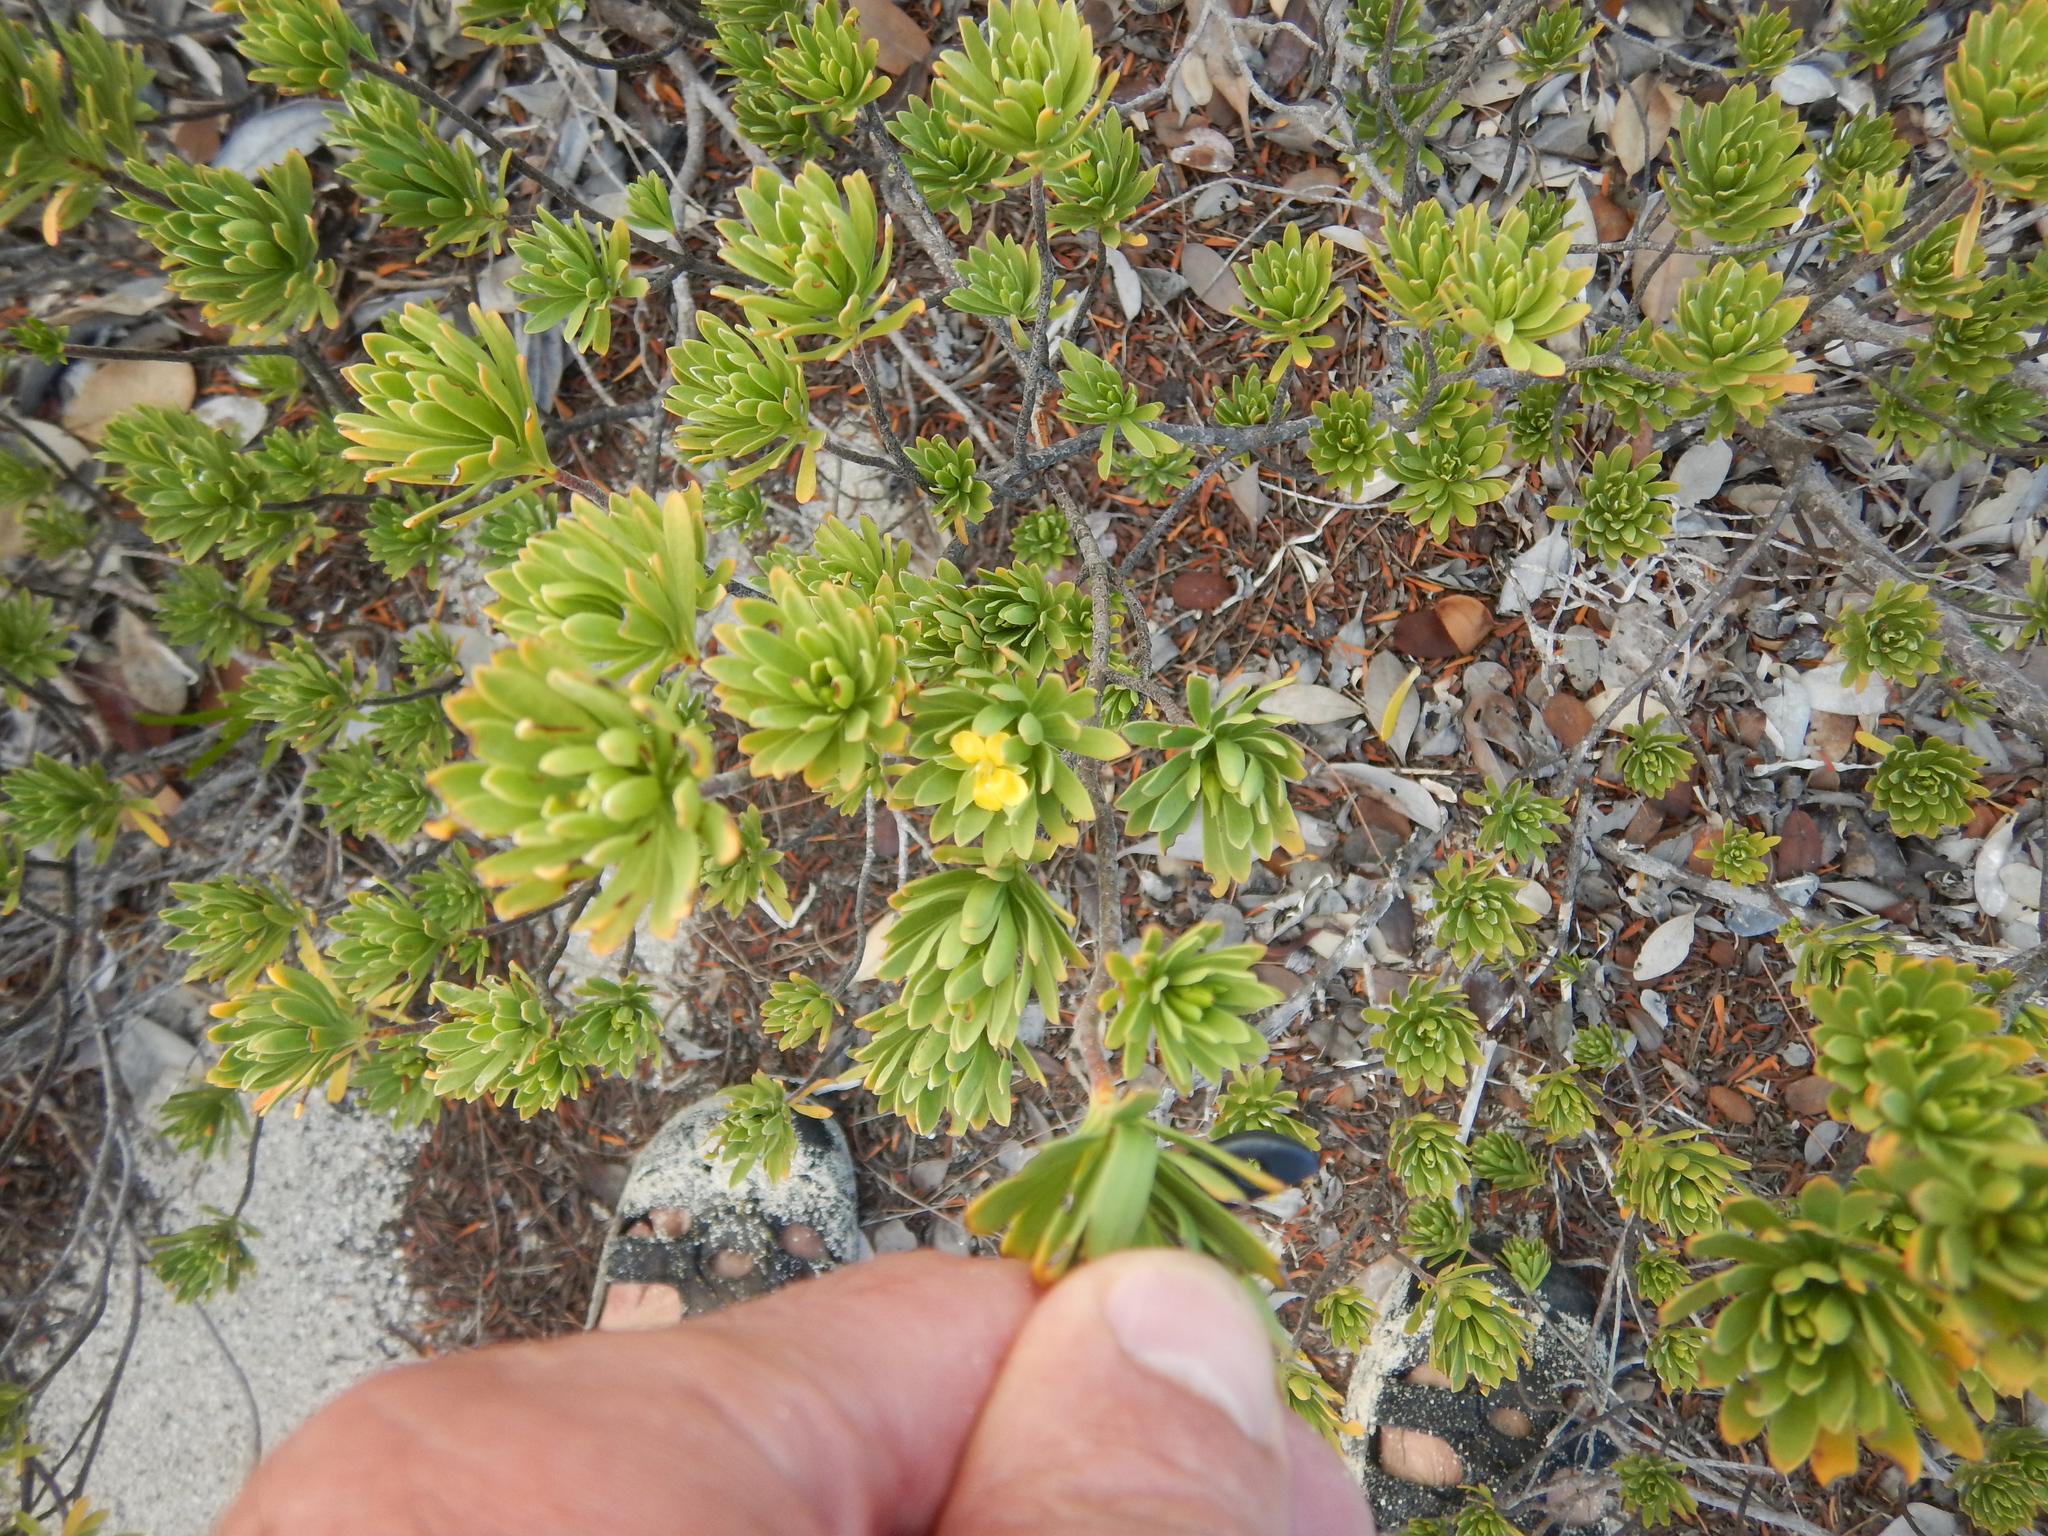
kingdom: Plantae
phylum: Tracheophyta
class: Magnoliopsida
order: Fabales
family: Surianaceae
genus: Suriana
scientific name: Suriana maritima
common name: Bay-cedar
